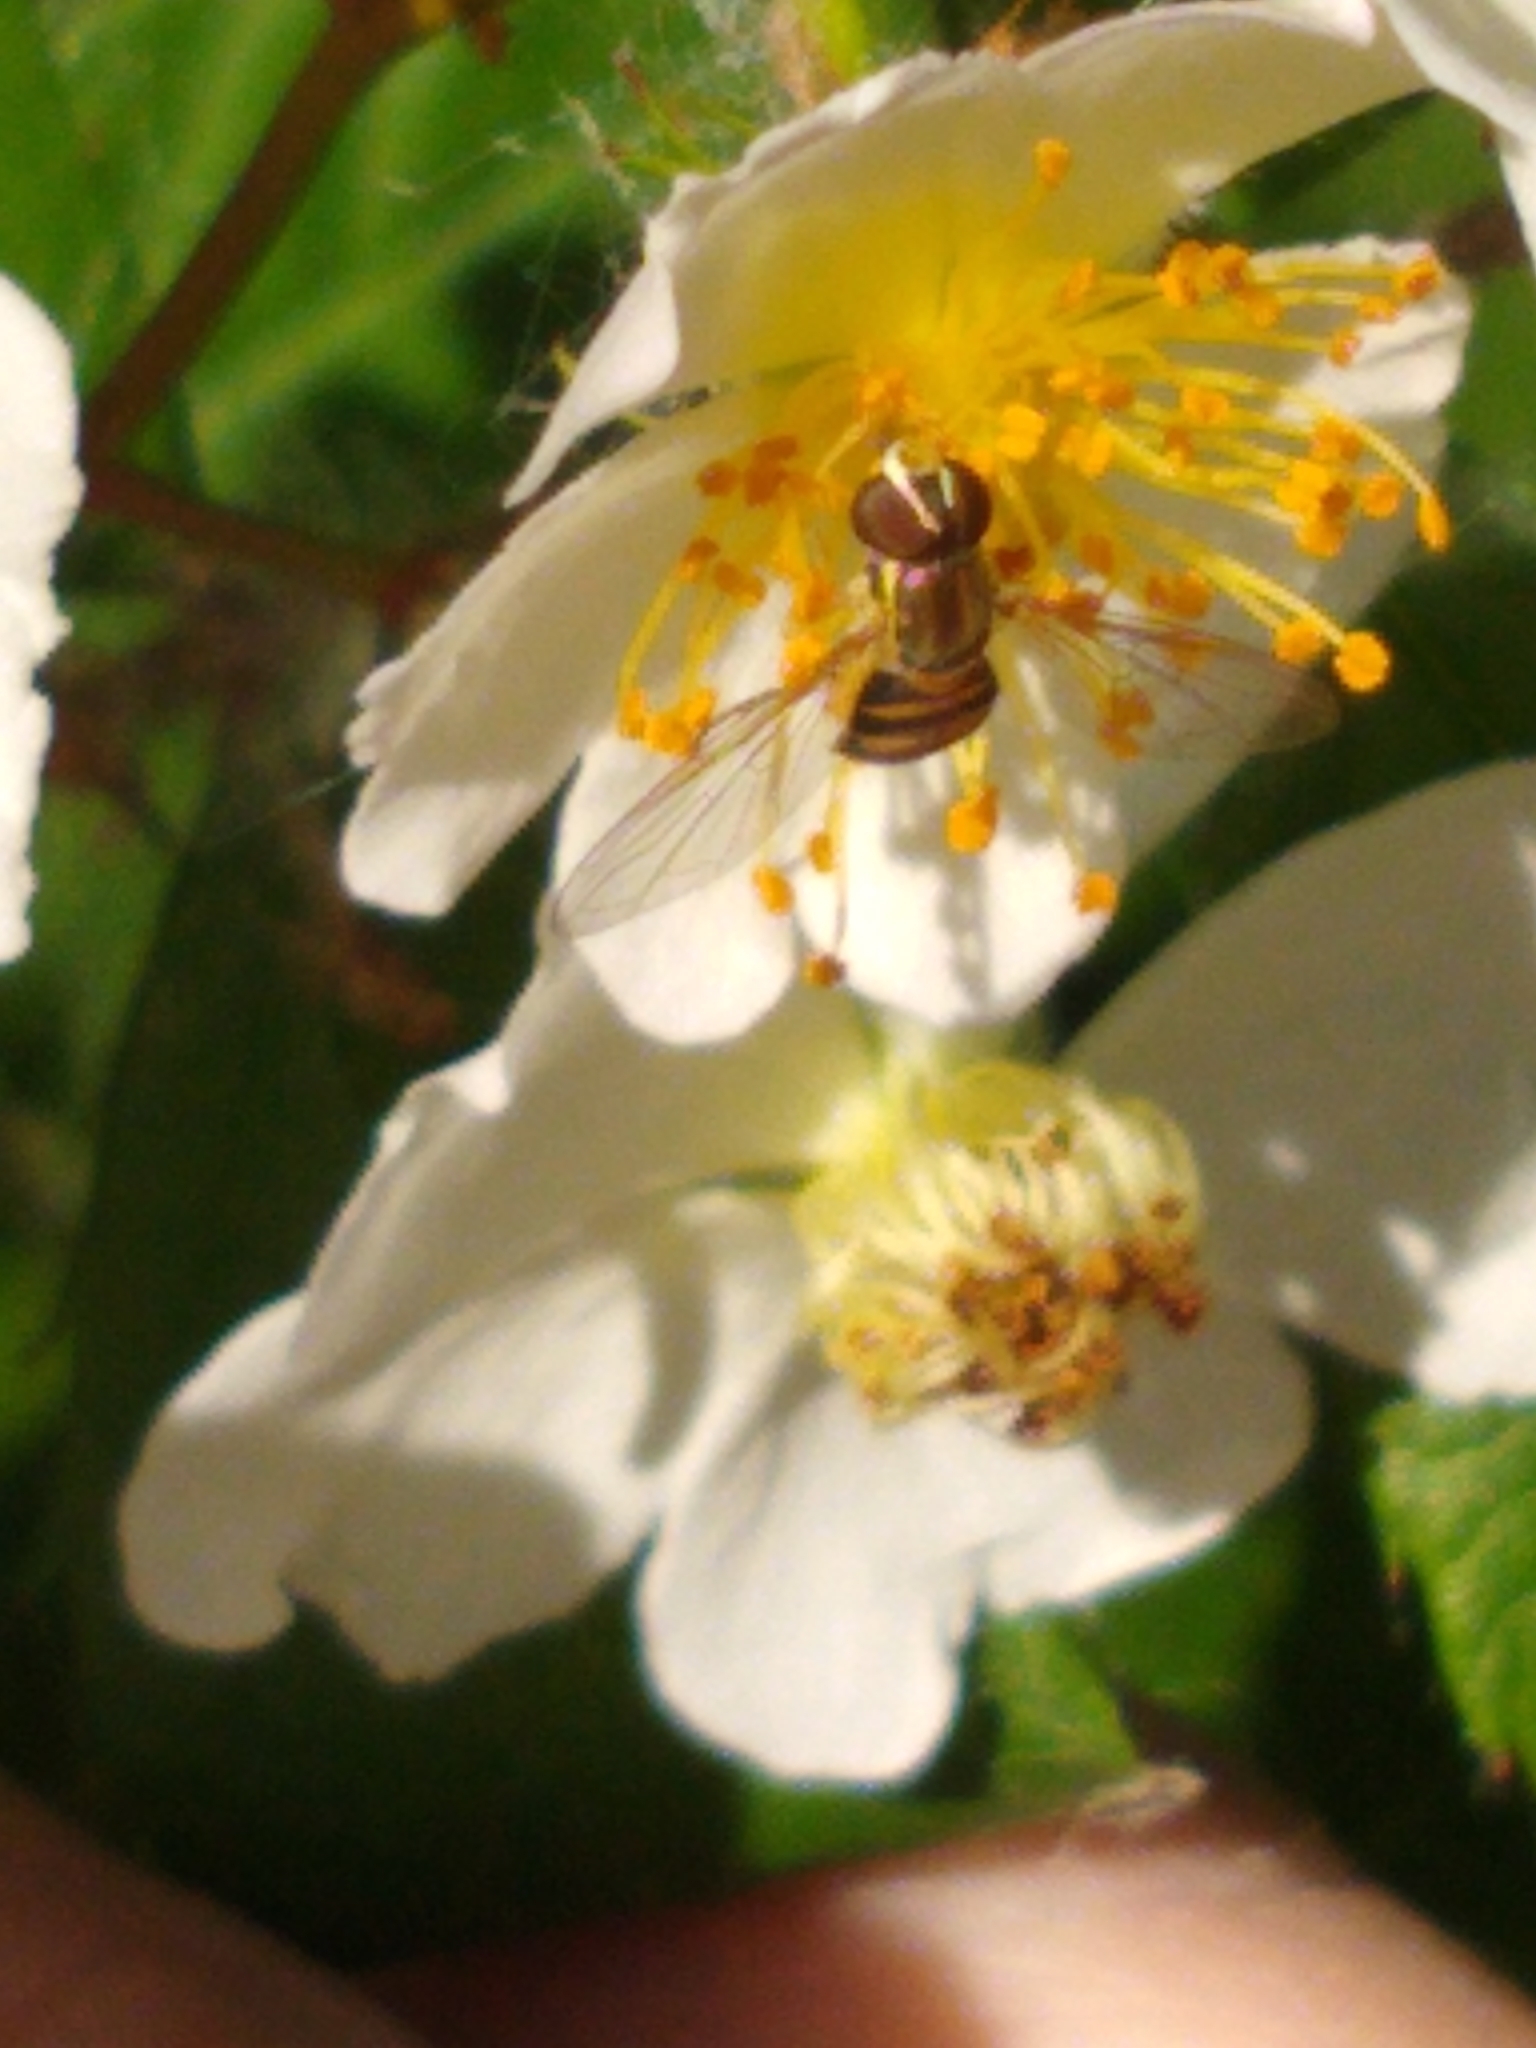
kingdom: Animalia
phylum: Arthropoda
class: Insecta
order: Diptera
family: Syrphidae
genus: Toxomerus
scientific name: Toxomerus marginatus
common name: Syrphid fly
